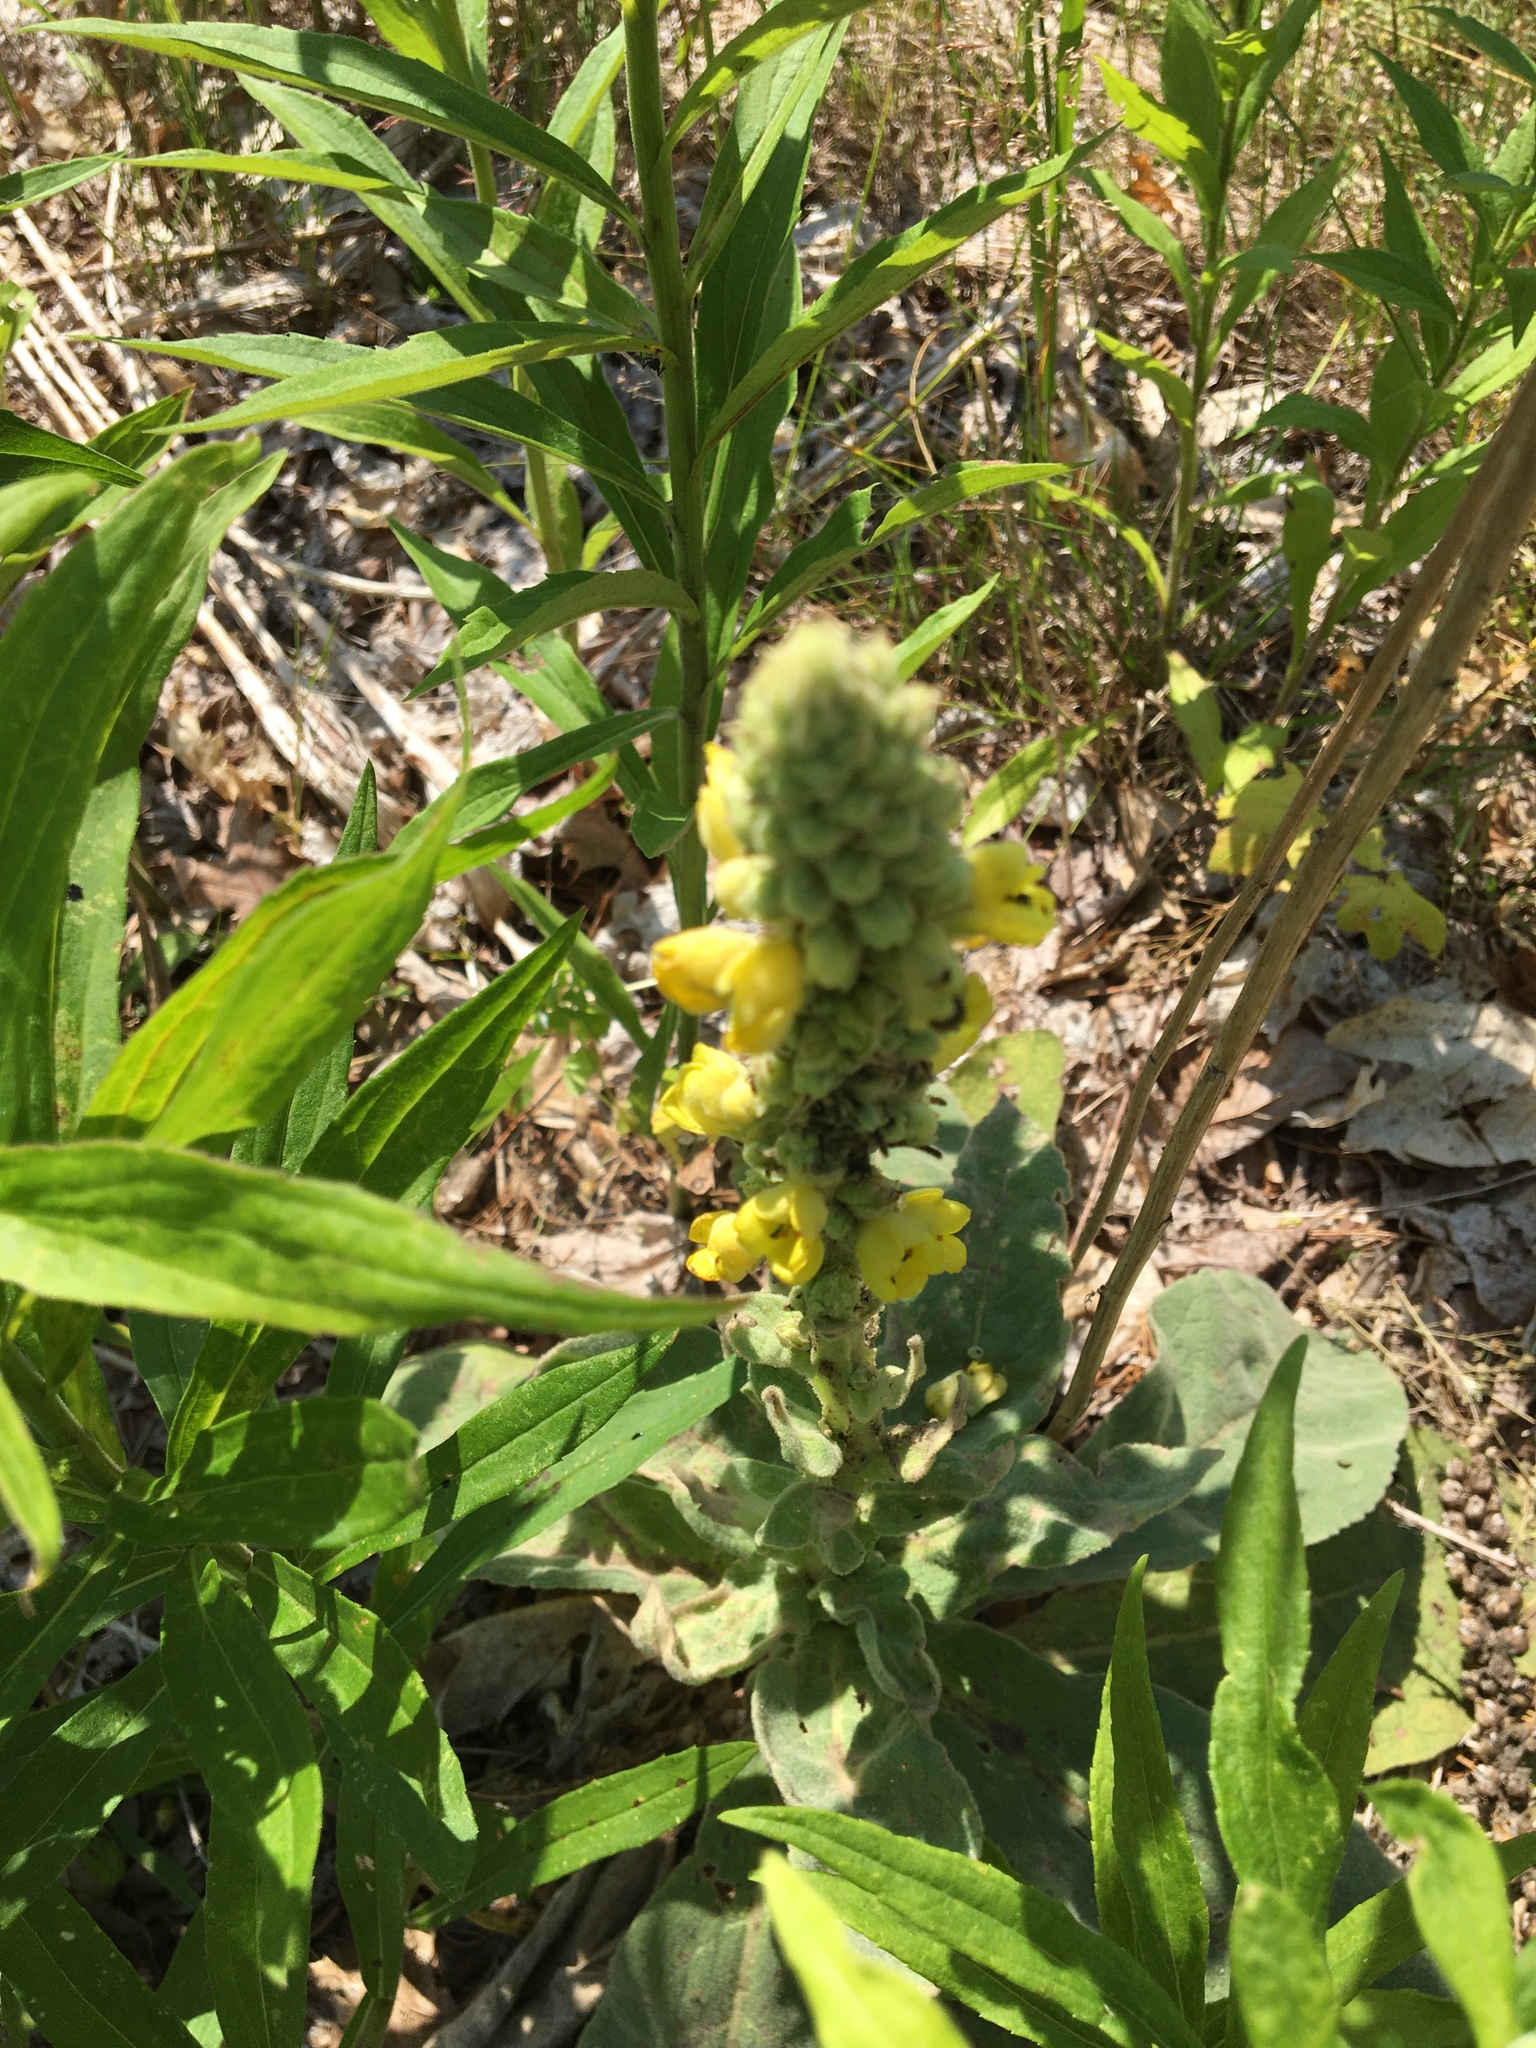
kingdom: Plantae
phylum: Tracheophyta
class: Magnoliopsida
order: Lamiales
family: Scrophulariaceae
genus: Verbascum
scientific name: Verbascum thapsus
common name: Common mullein
